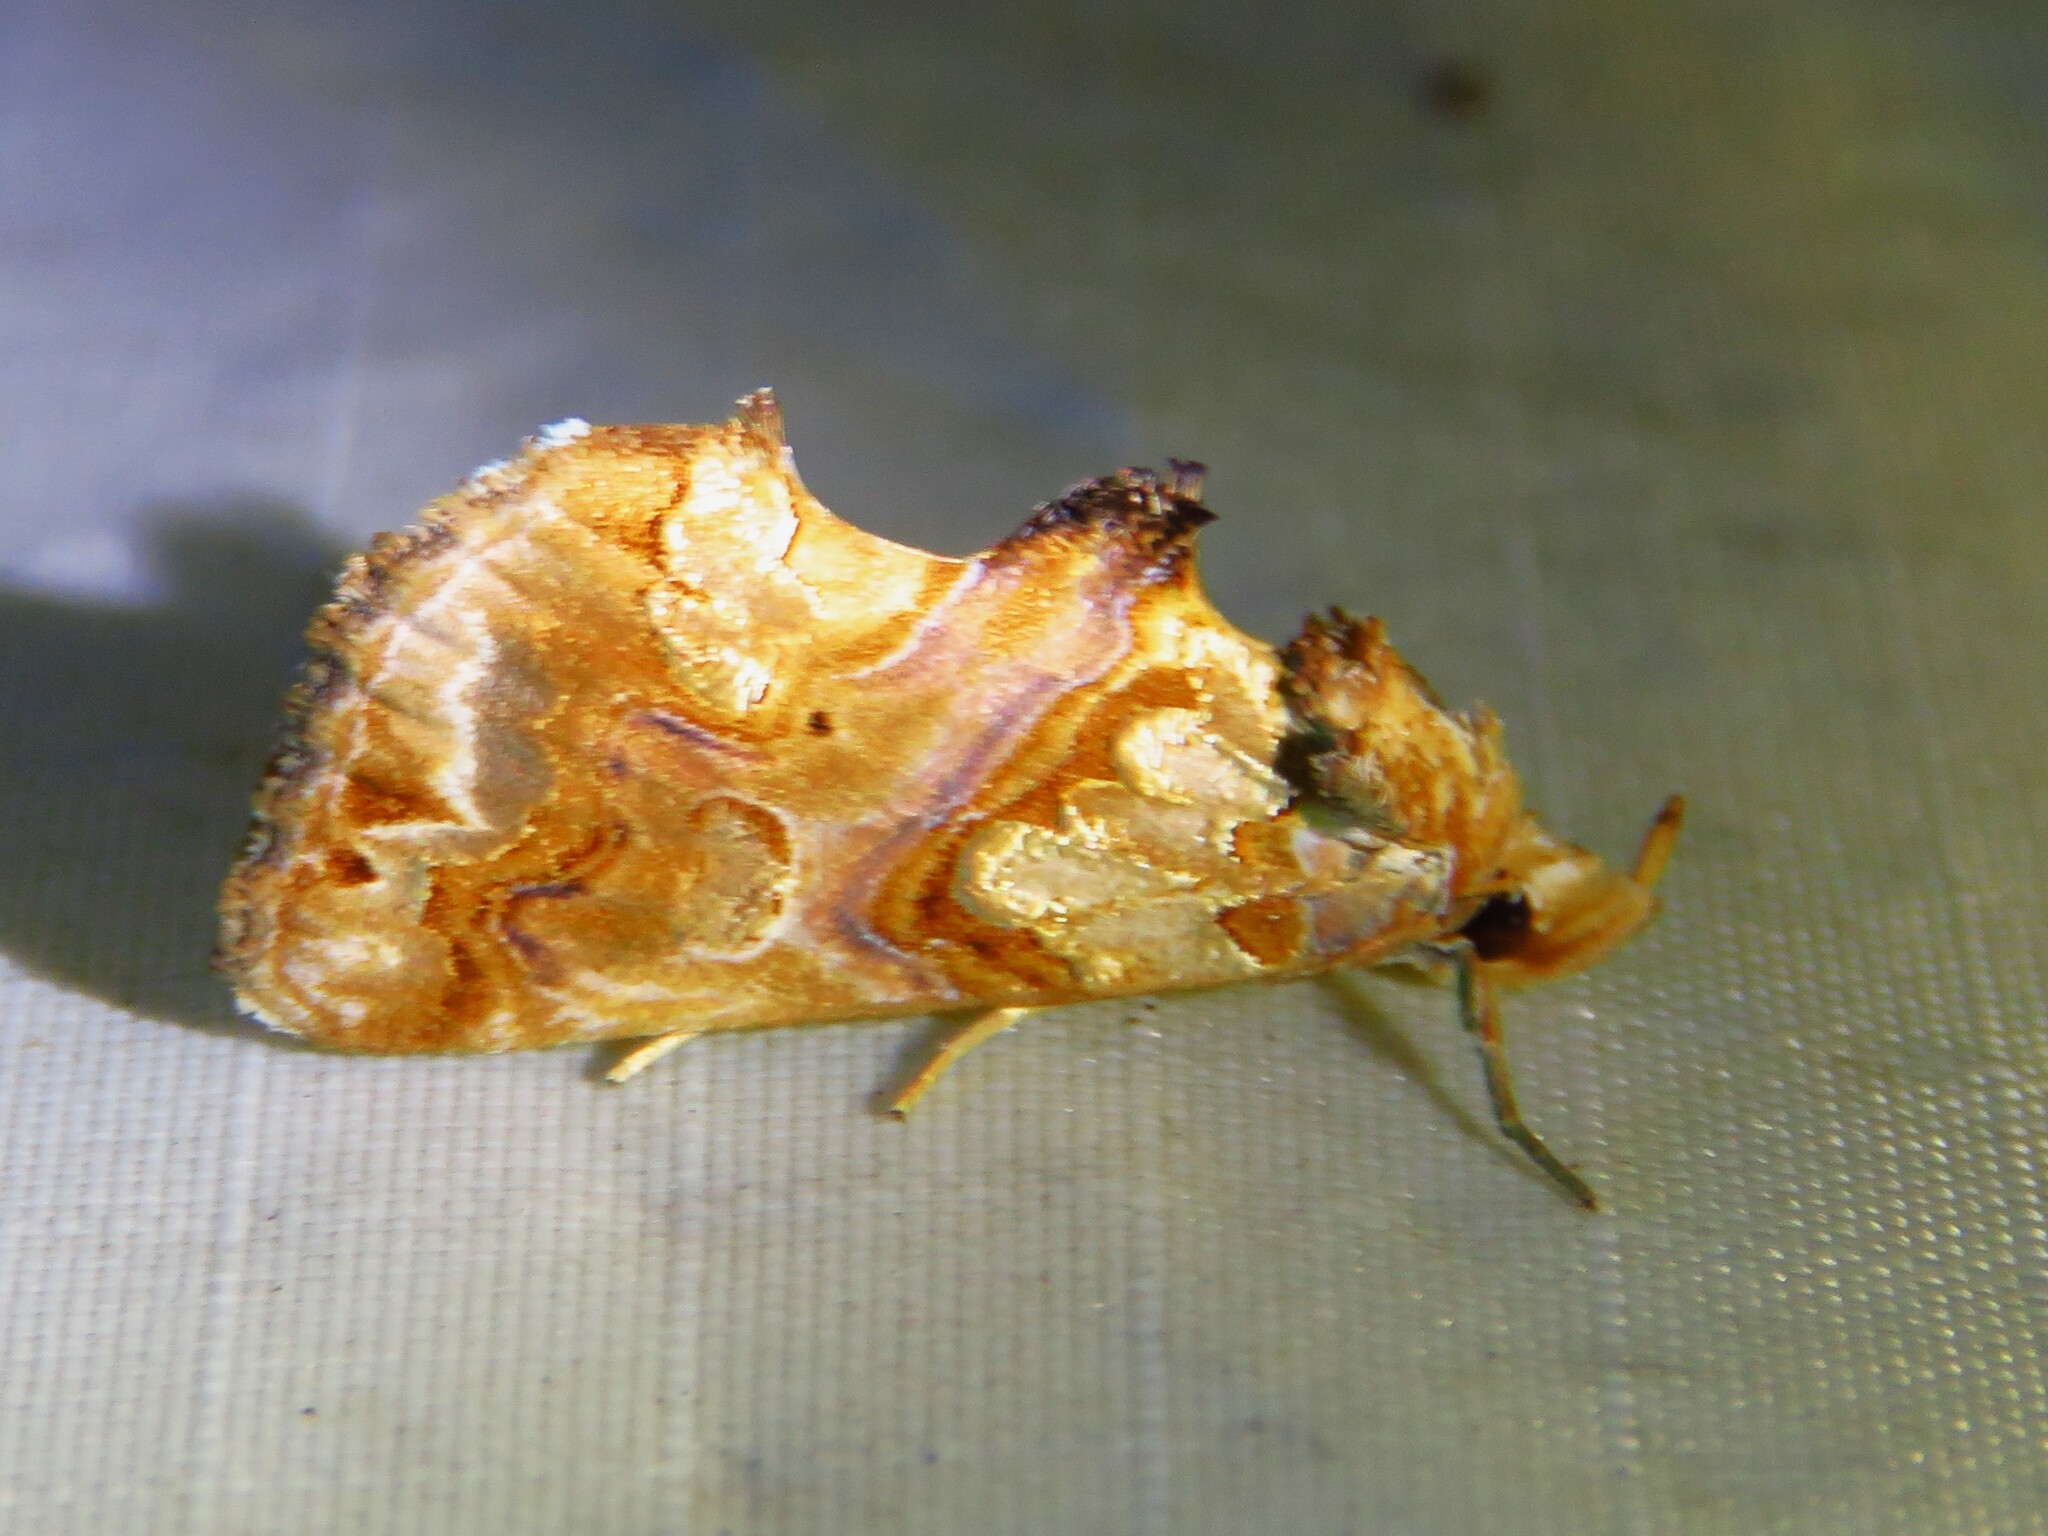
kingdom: Animalia
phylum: Arthropoda
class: Insecta
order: Lepidoptera
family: Erebidae
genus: Plusiodonta
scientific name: Plusiodonta compressipalpis
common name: Moonseed moth
